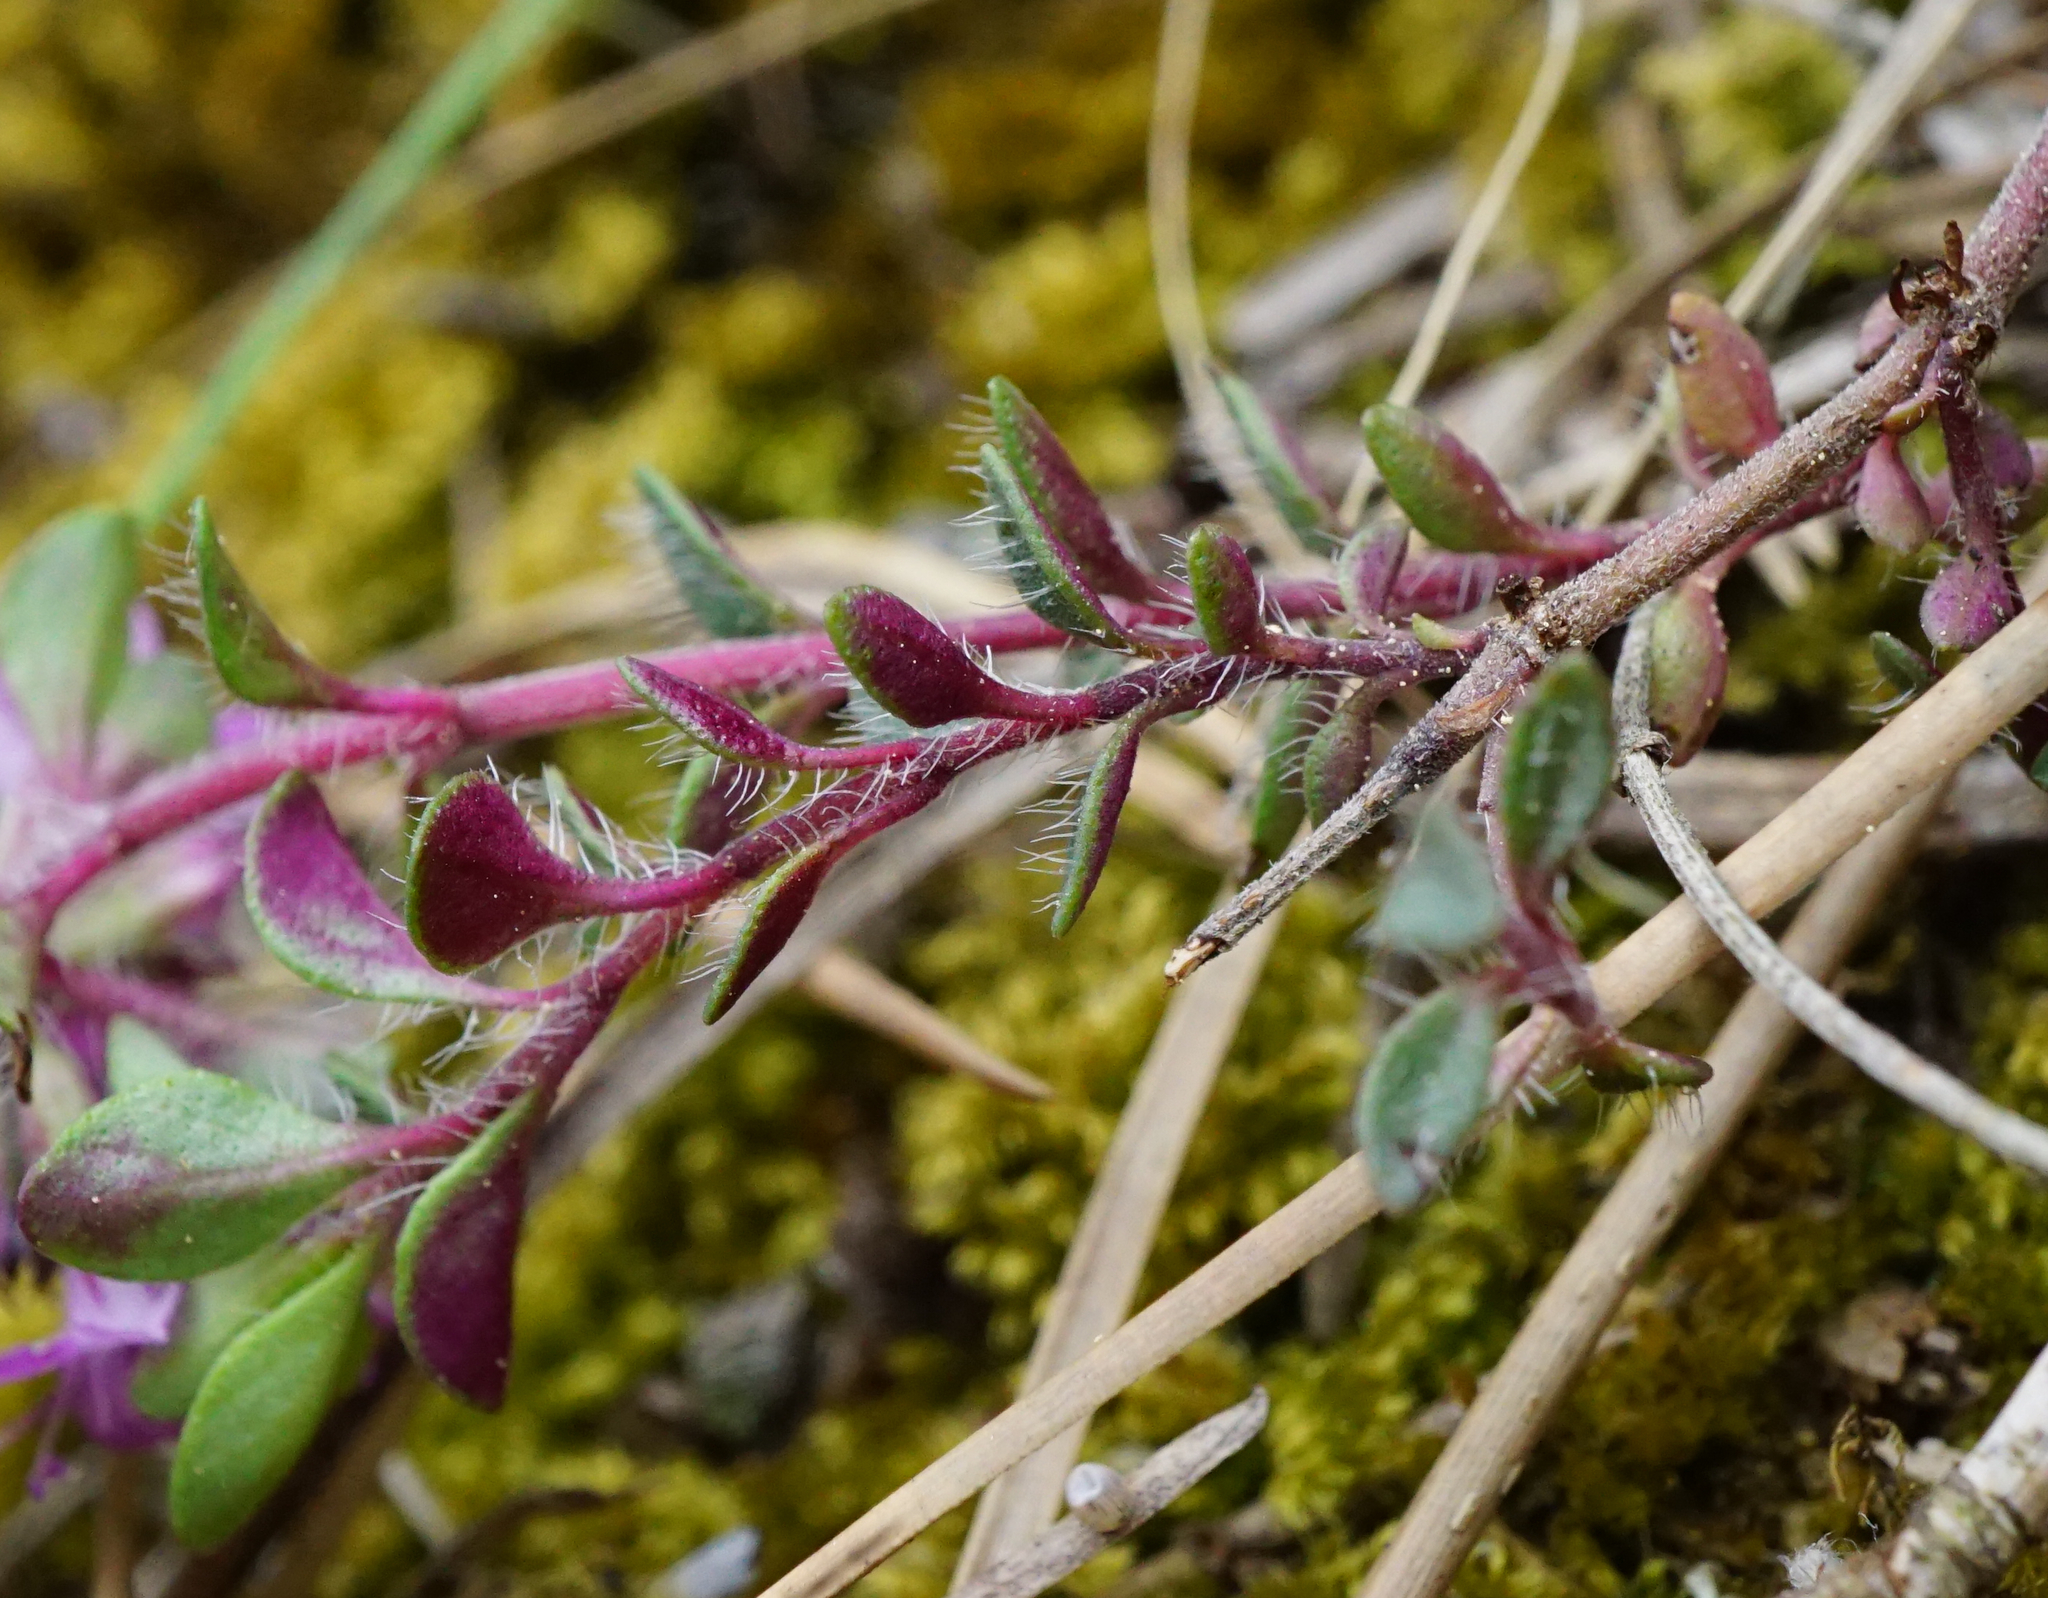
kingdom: Plantae
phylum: Tracheophyta
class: Magnoliopsida
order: Lamiales
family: Lamiaceae
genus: Thymus
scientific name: Thymus praecox
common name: Wild thyme
